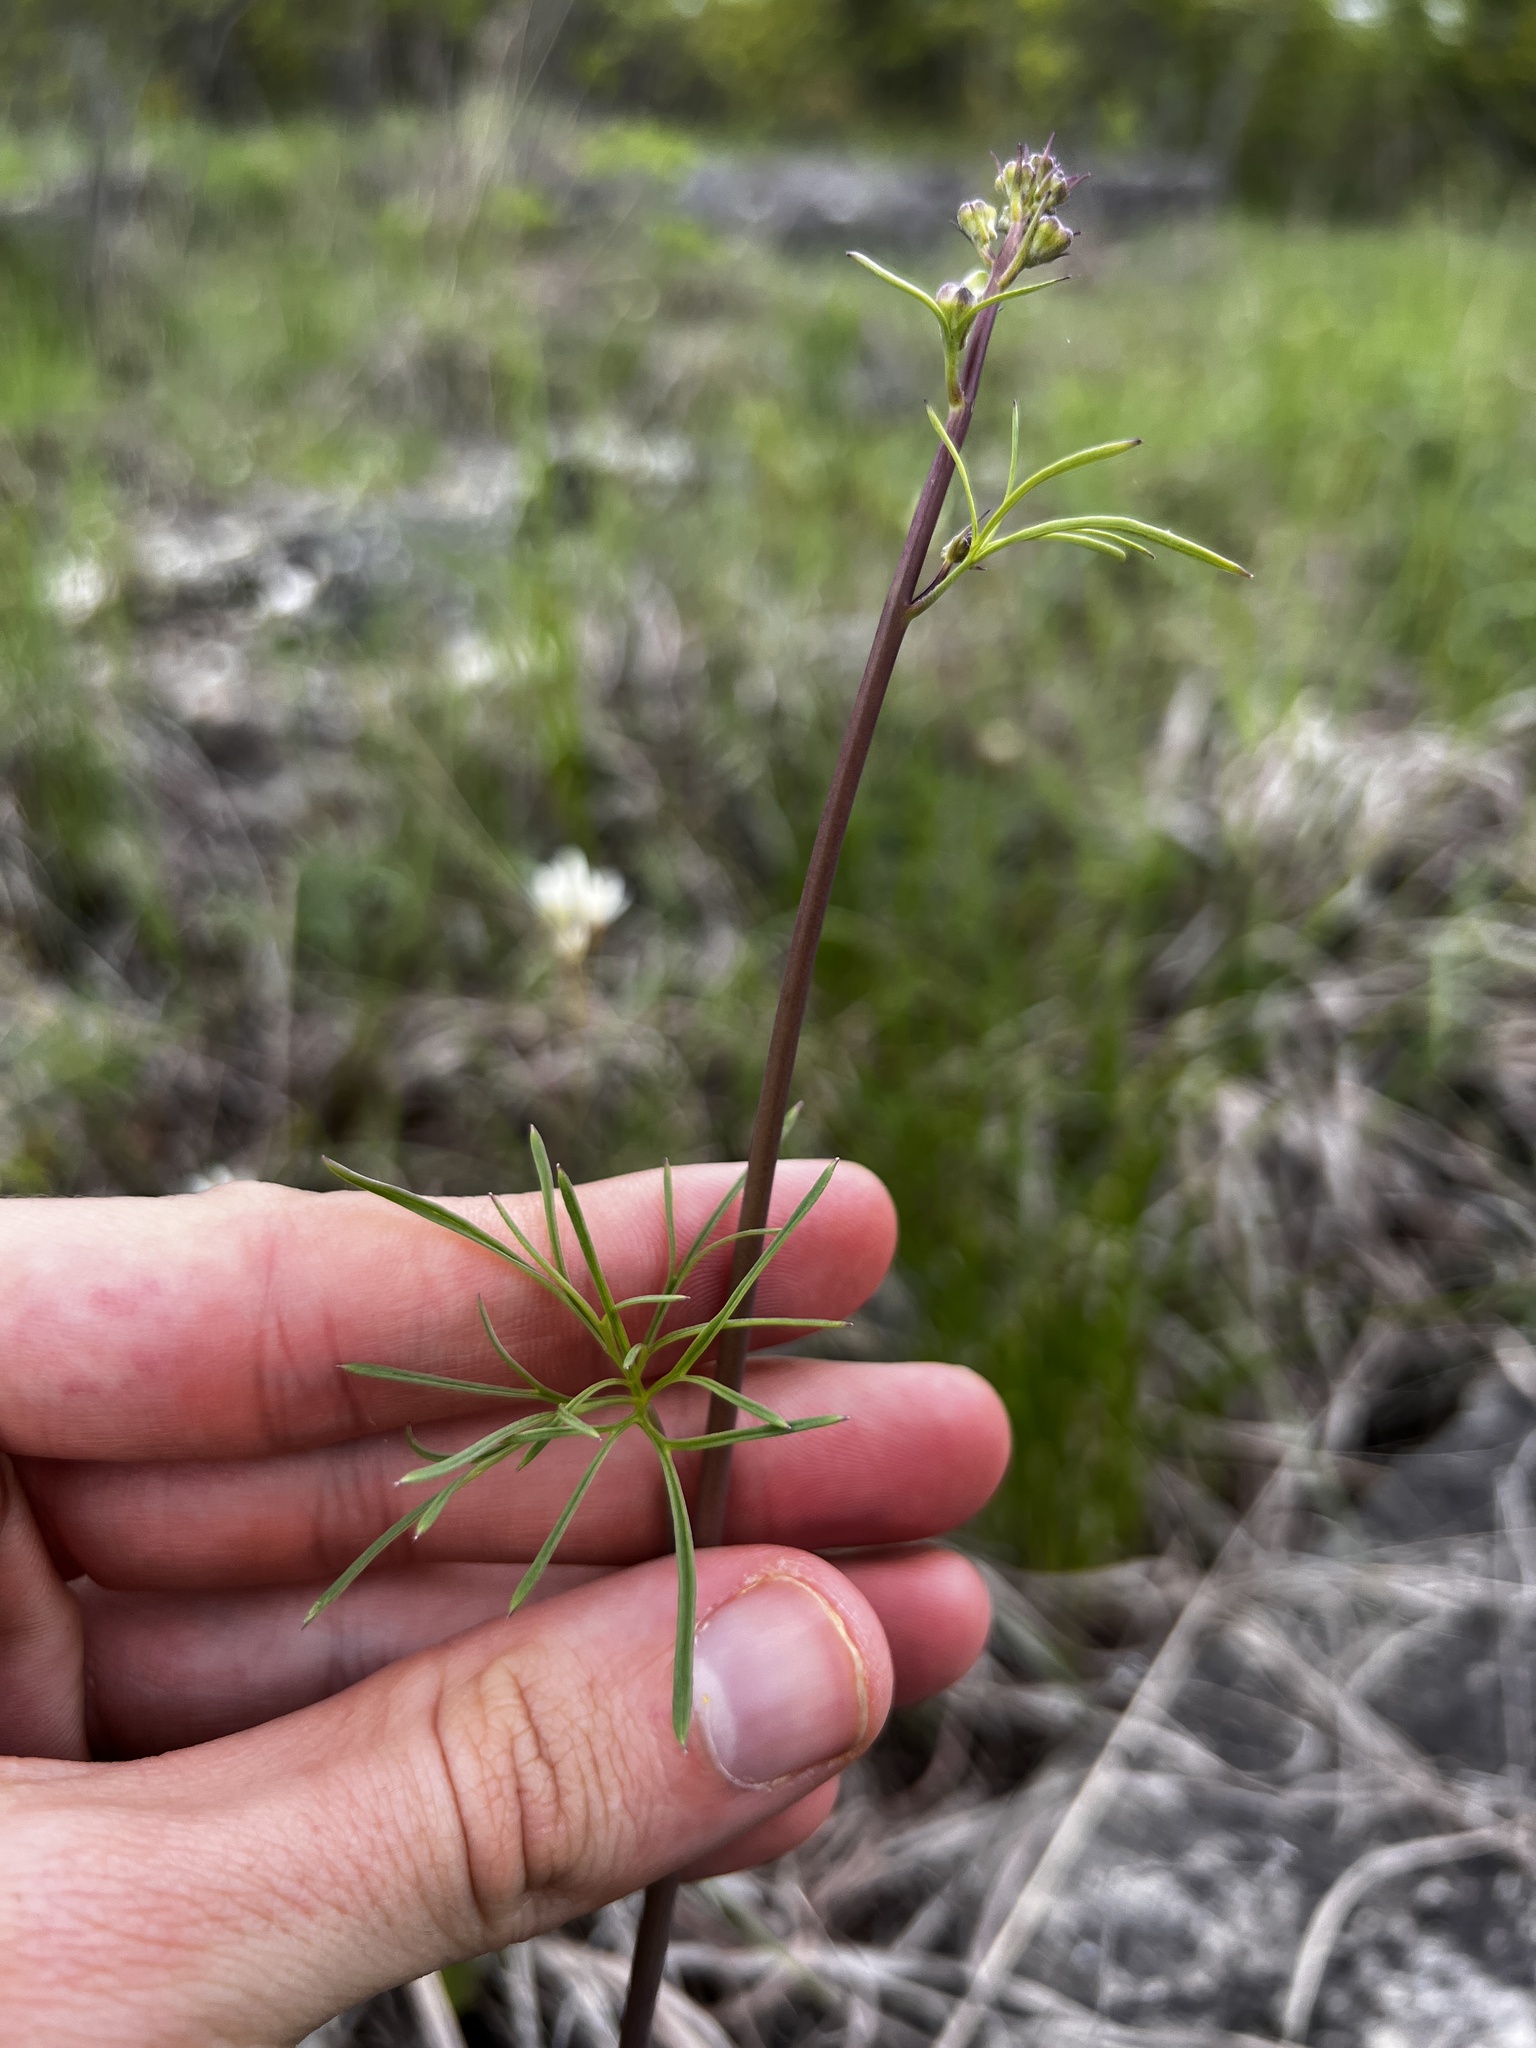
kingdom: Plantae
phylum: Tracheophyta
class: Magnoliopsida
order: Ranunculales
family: Ranunculaceae
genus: Delphinium
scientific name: Delphinium treleasei
